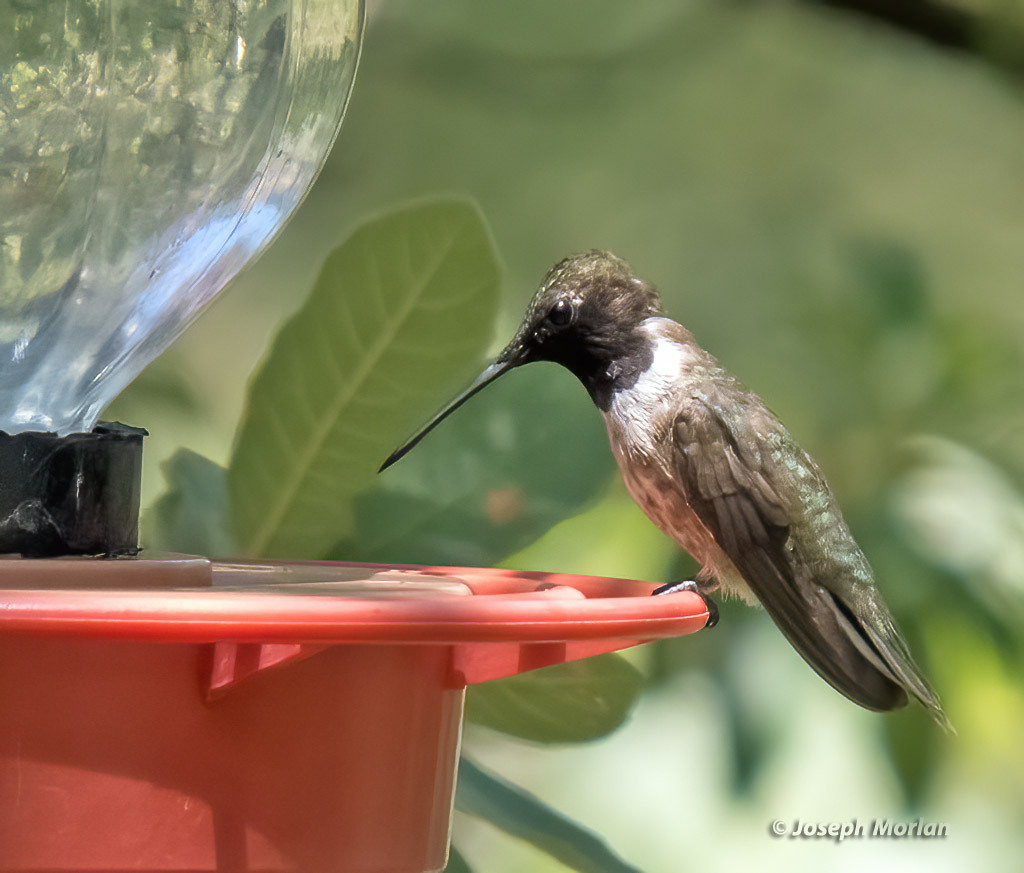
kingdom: Animalia
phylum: Chordata
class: Aves
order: Apodiformes
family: Trochilidae
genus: Archilochus
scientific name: Archilochus alexandri
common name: Black-chinned hummingbird
